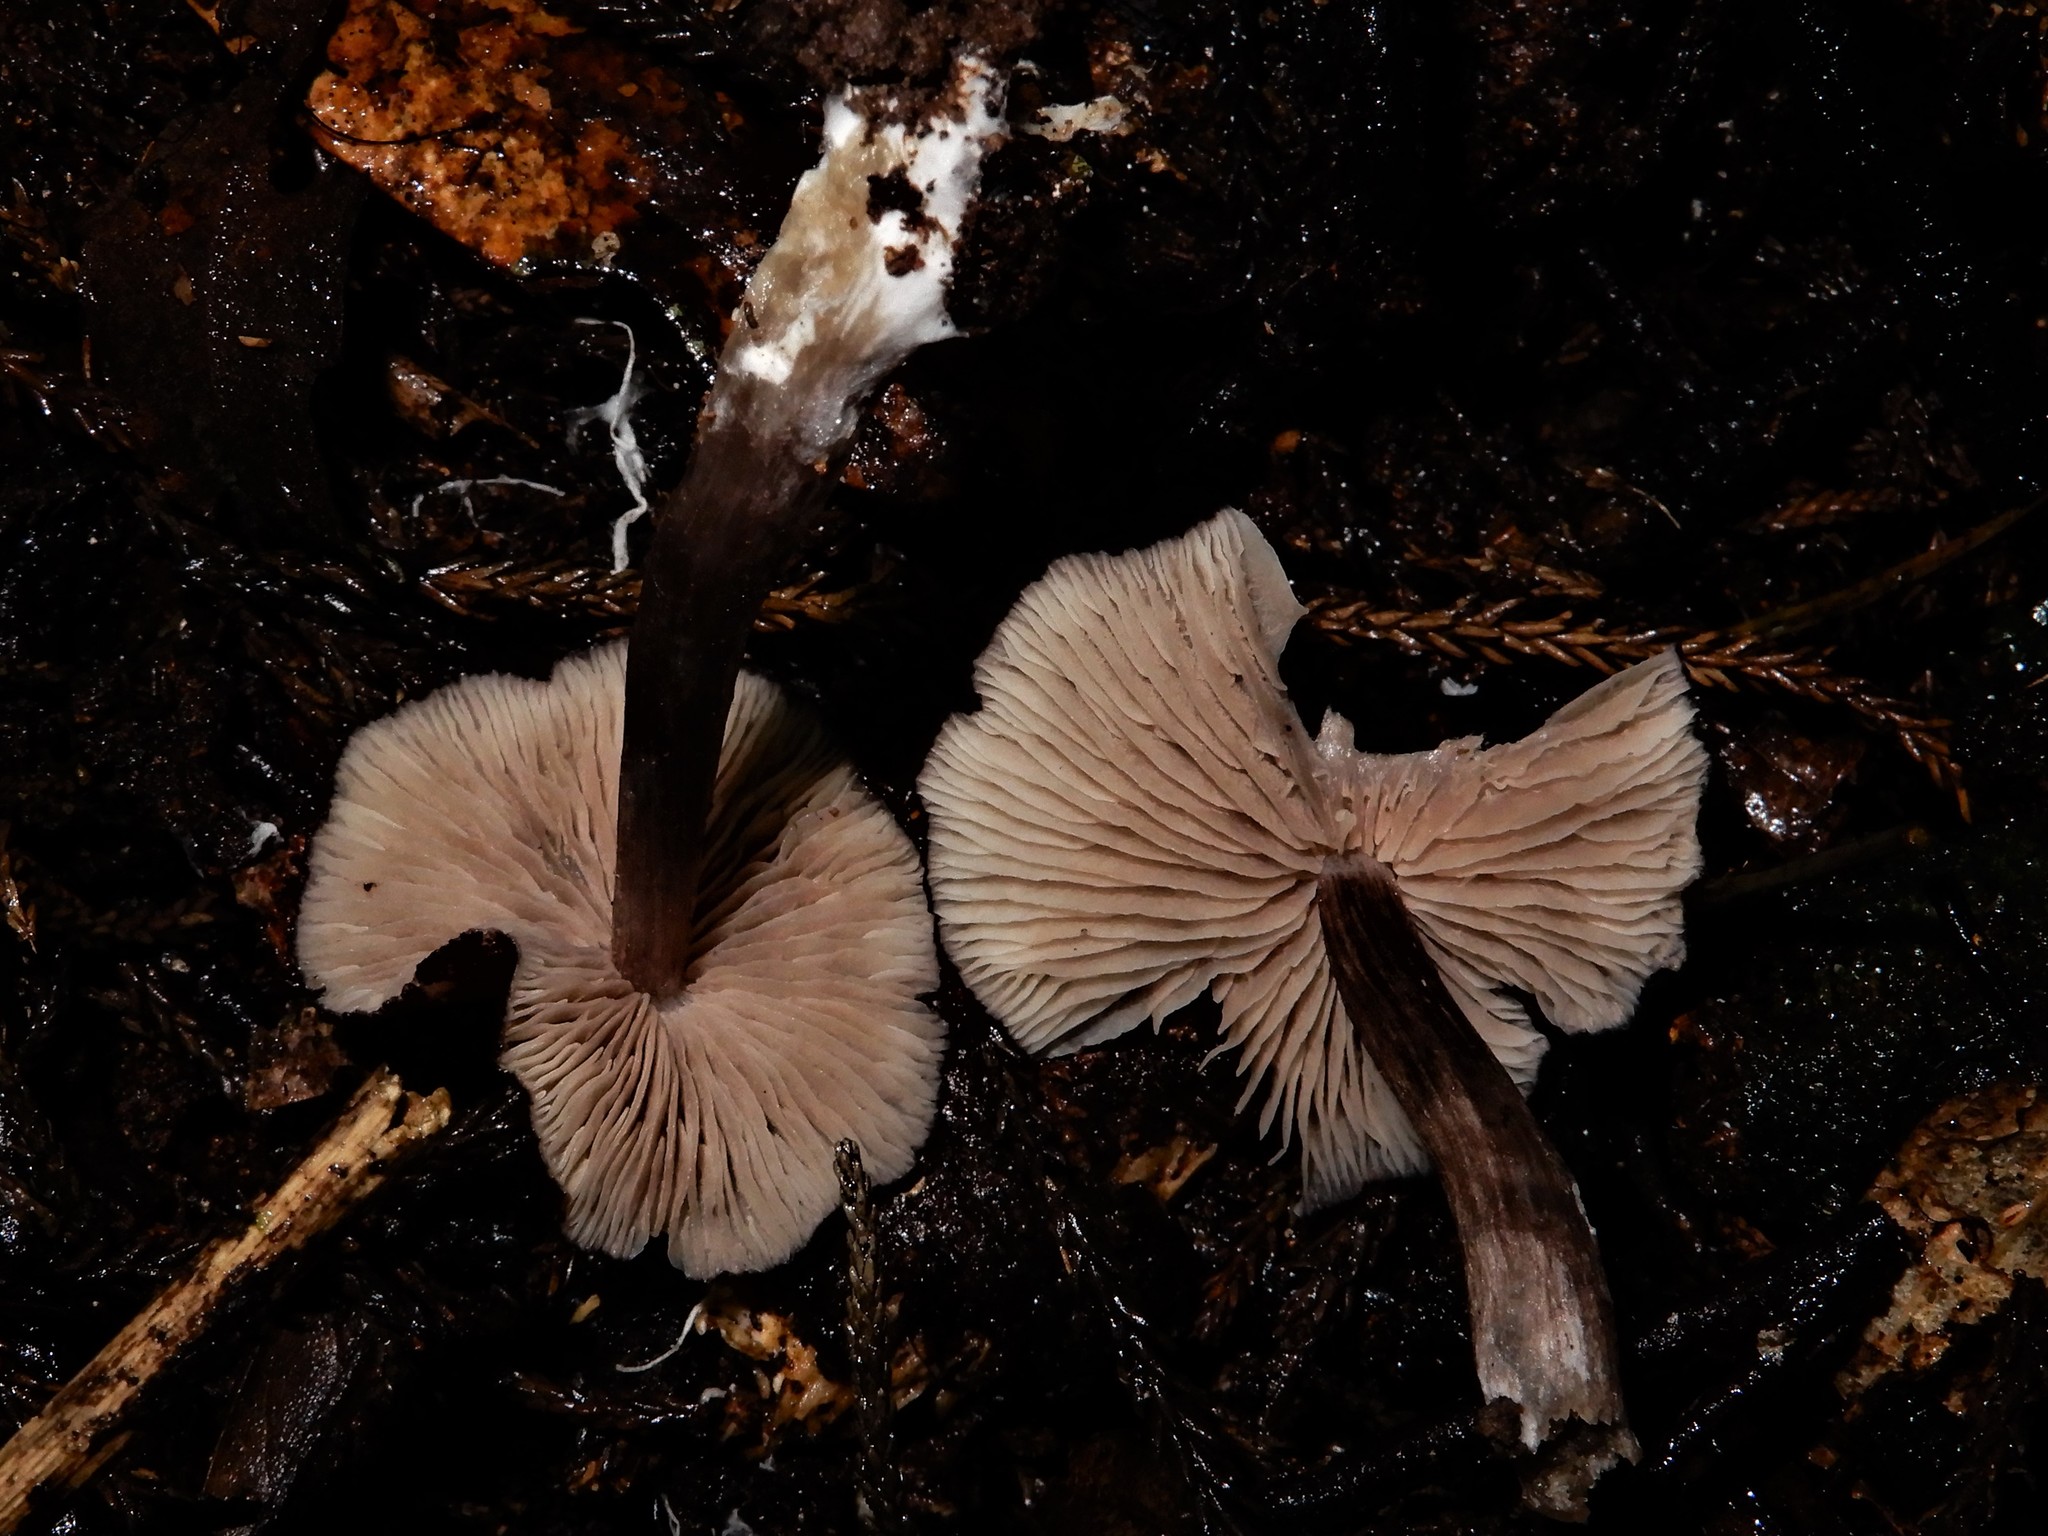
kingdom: Fungi
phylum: Basidiomycota
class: Agaricomycetes
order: Agaricales
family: Entolomataceae
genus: Entoloma
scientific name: Entoloma porphyrescens
